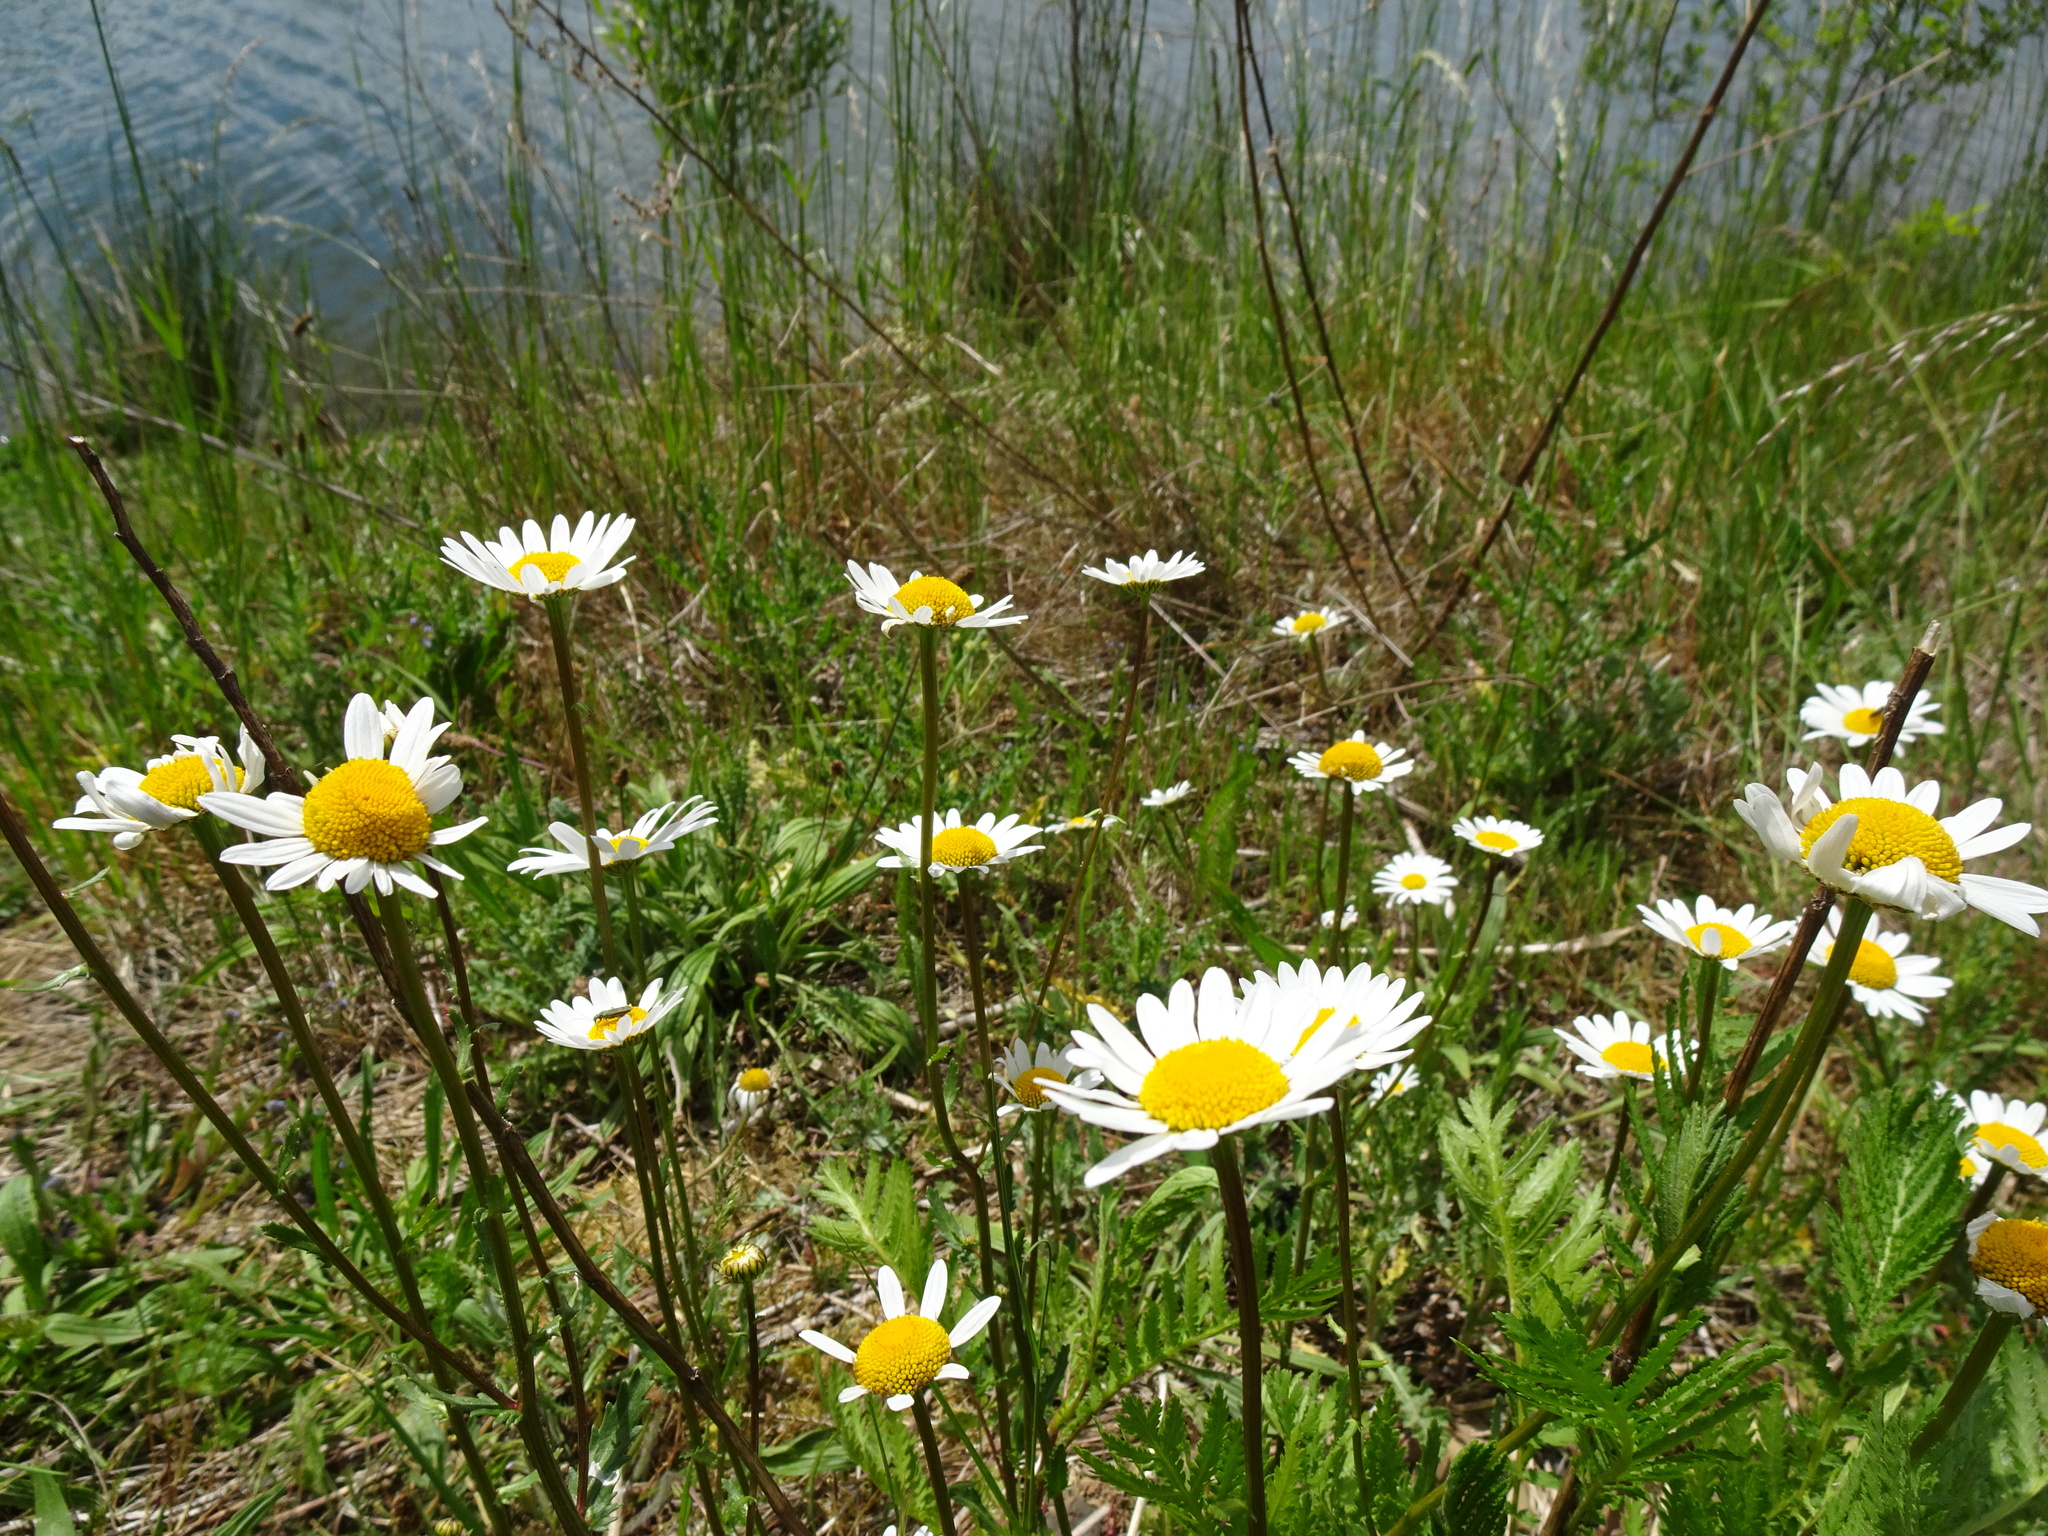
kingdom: Plantae
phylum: Tracheophyta
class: Magnoliopsida
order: Asterales
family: Asteraceae
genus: Leucanthemum
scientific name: Leucanthemum vulgare
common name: Oxeye daisy
